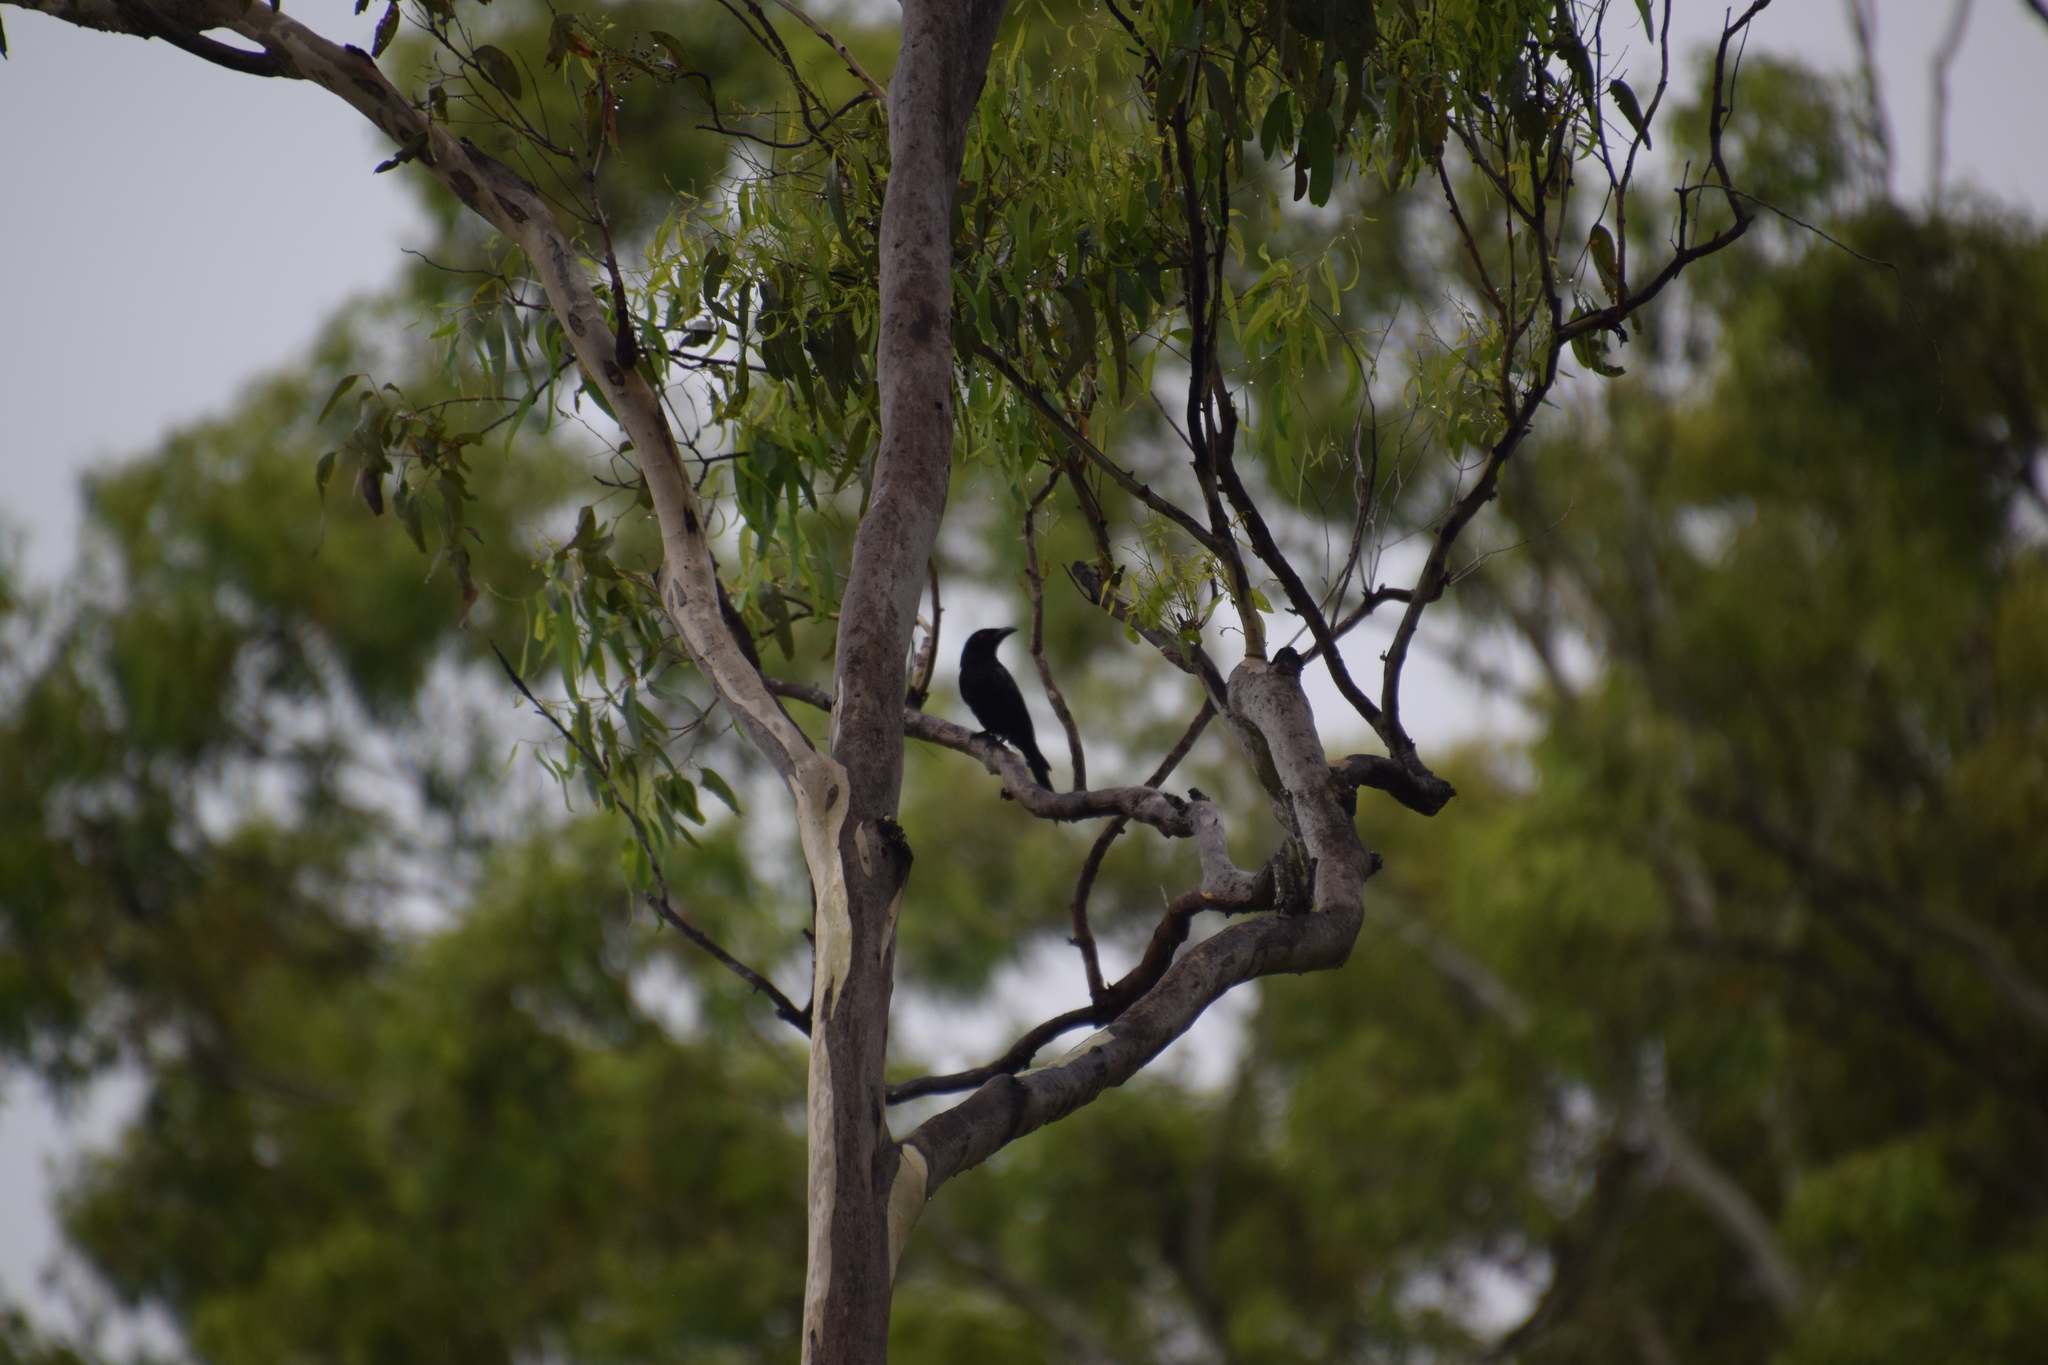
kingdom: Animalia
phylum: Chordata
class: Aves
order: Passeriformes
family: Dicruridae
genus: Dicrurus
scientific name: Dicrurus bracteatus
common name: Spangled drongo
